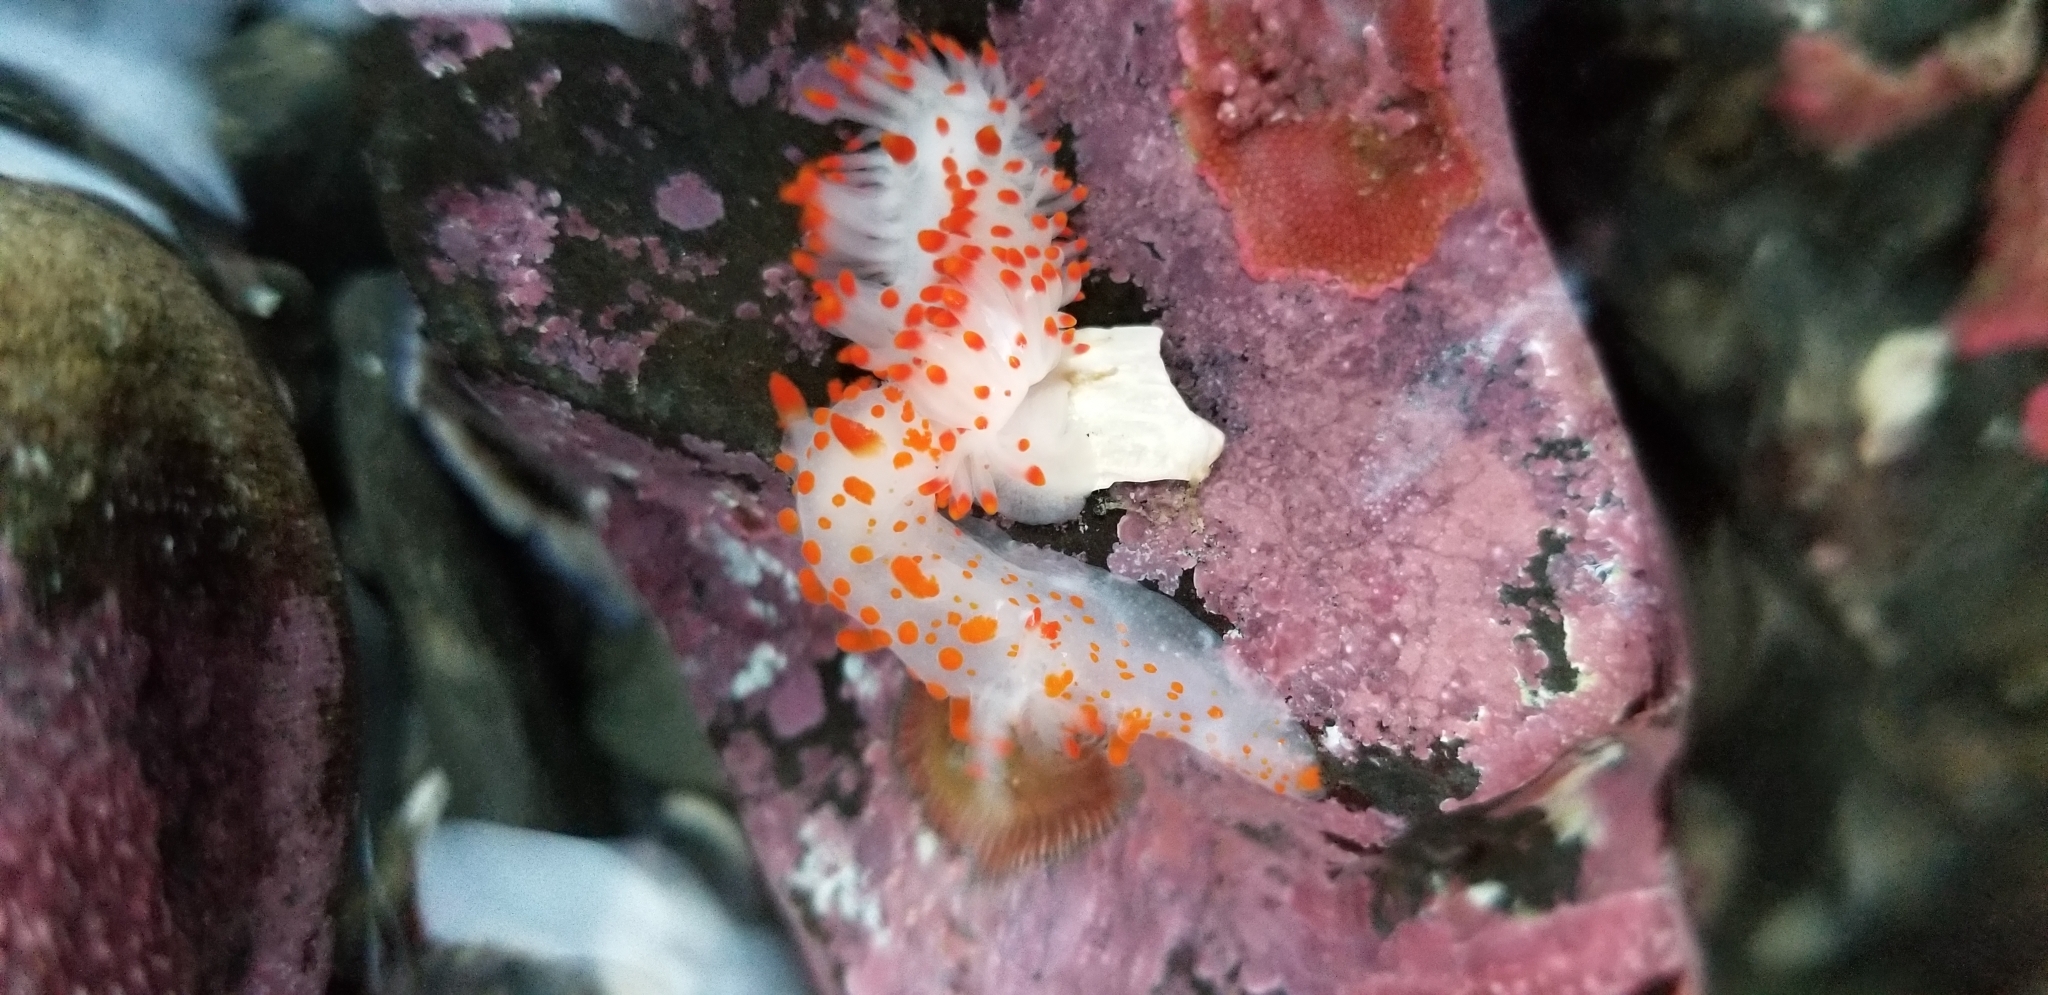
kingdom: Animalia
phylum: Mollusca
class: Gastropoda
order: Nudibranchia
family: Polyceridae
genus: Limacia
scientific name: Limacia mcdonaldi
